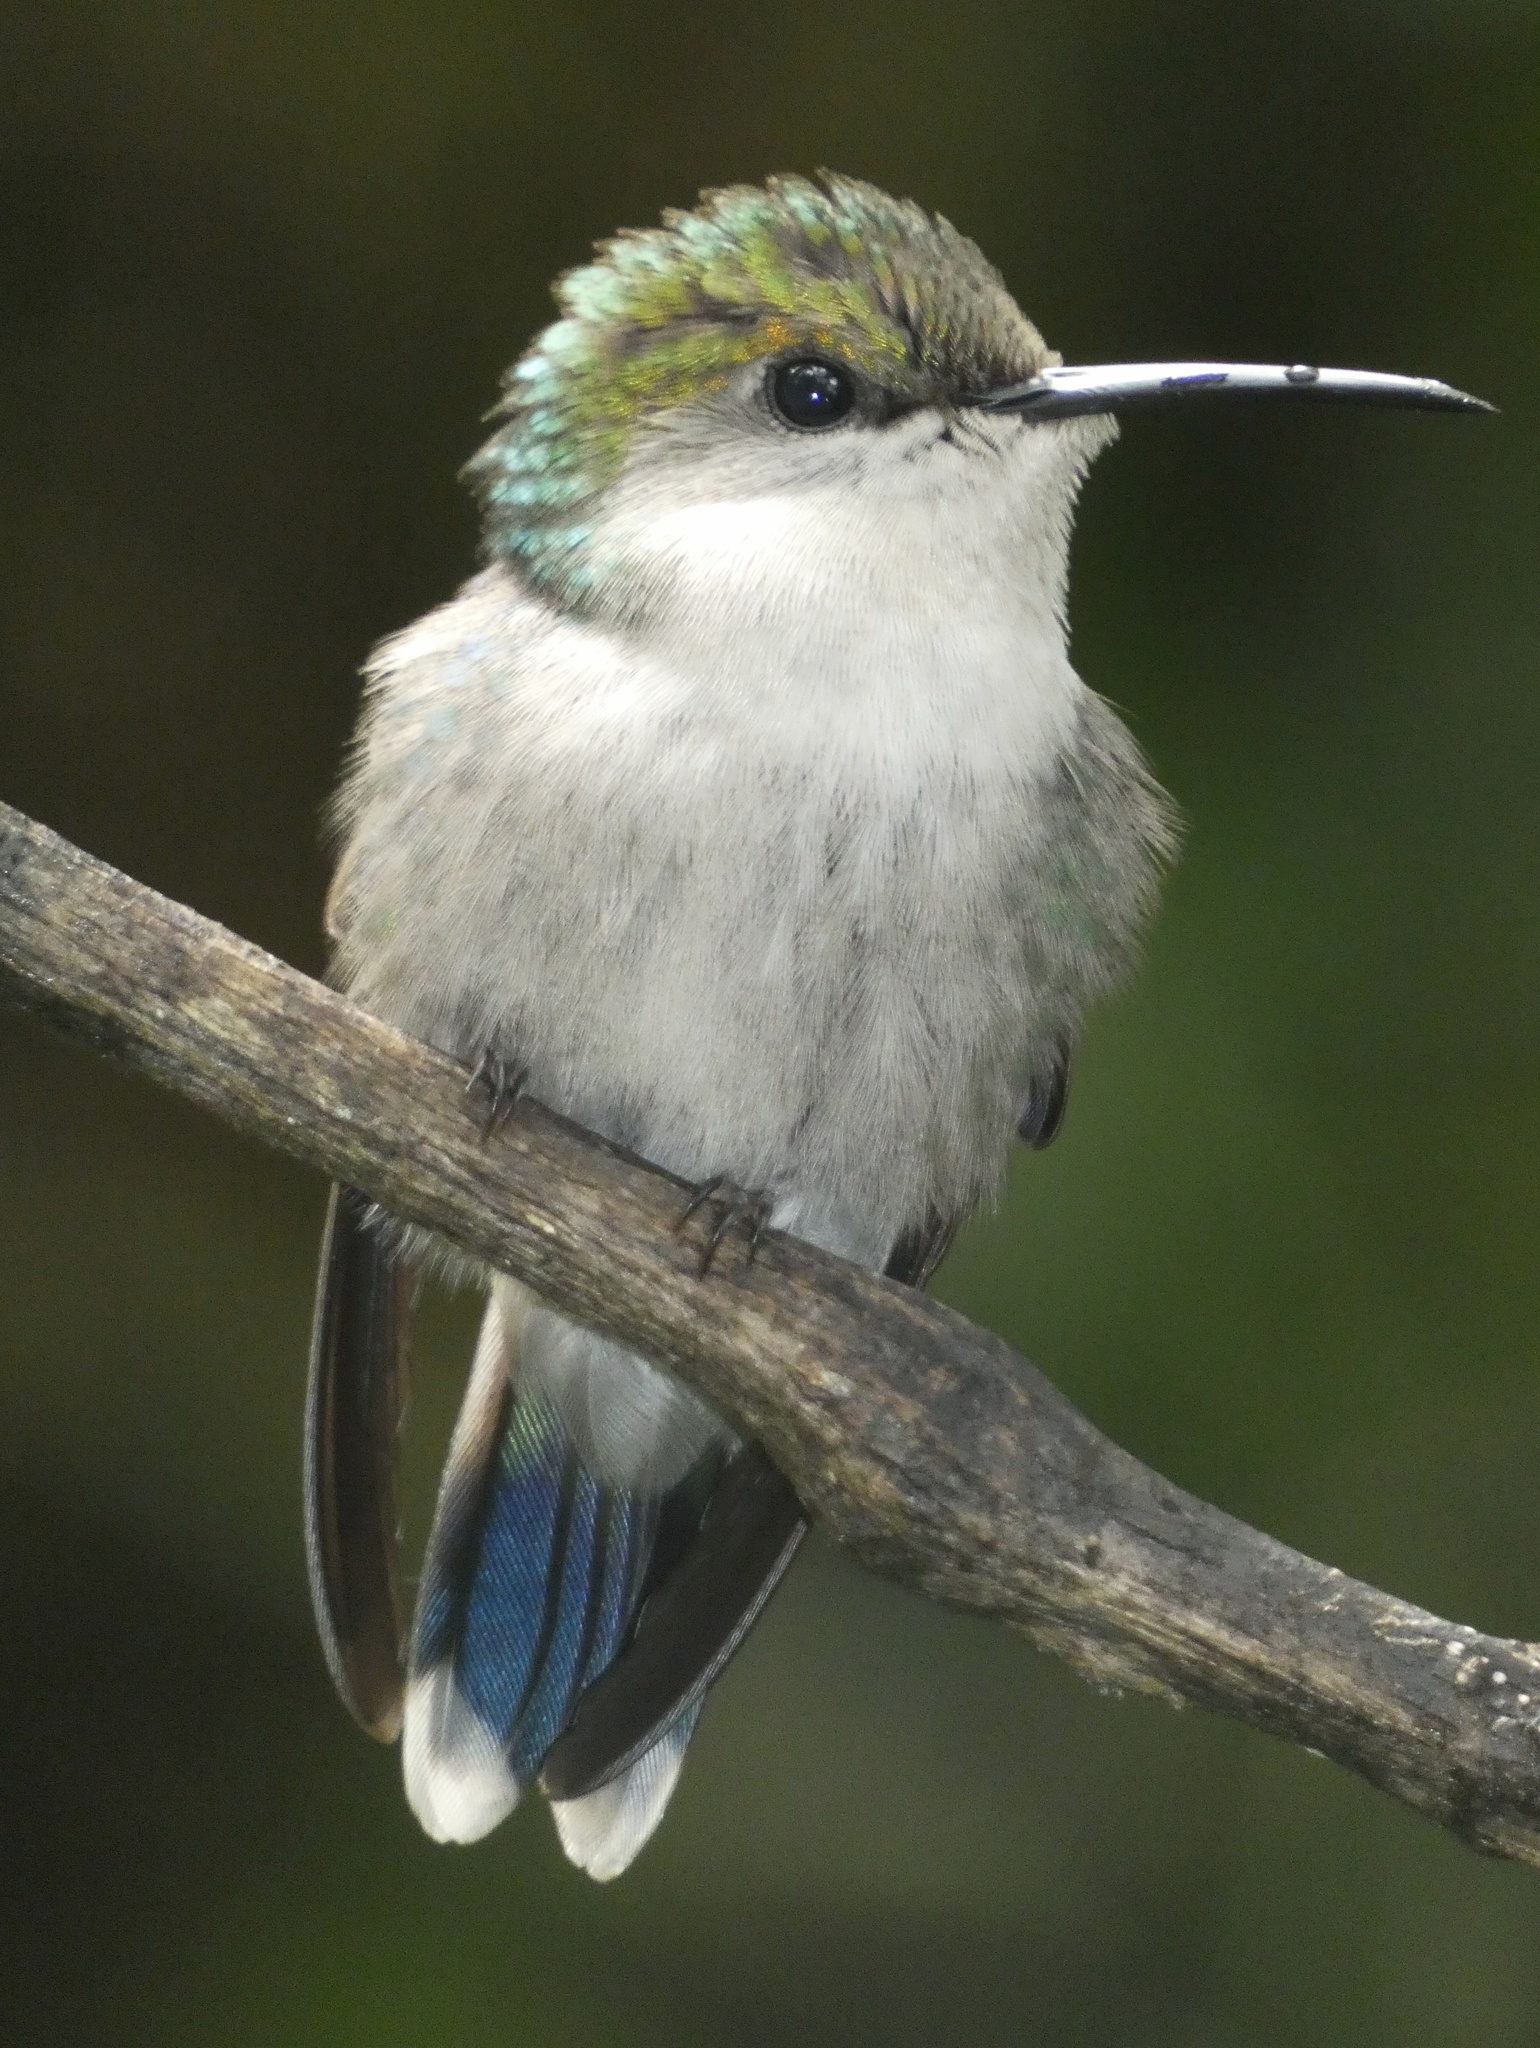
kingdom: Animalia
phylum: Chordata
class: Aves
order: Apodiformes
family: Trochilidae
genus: Microchera
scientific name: Microchera albocoronata
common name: Snowcap
